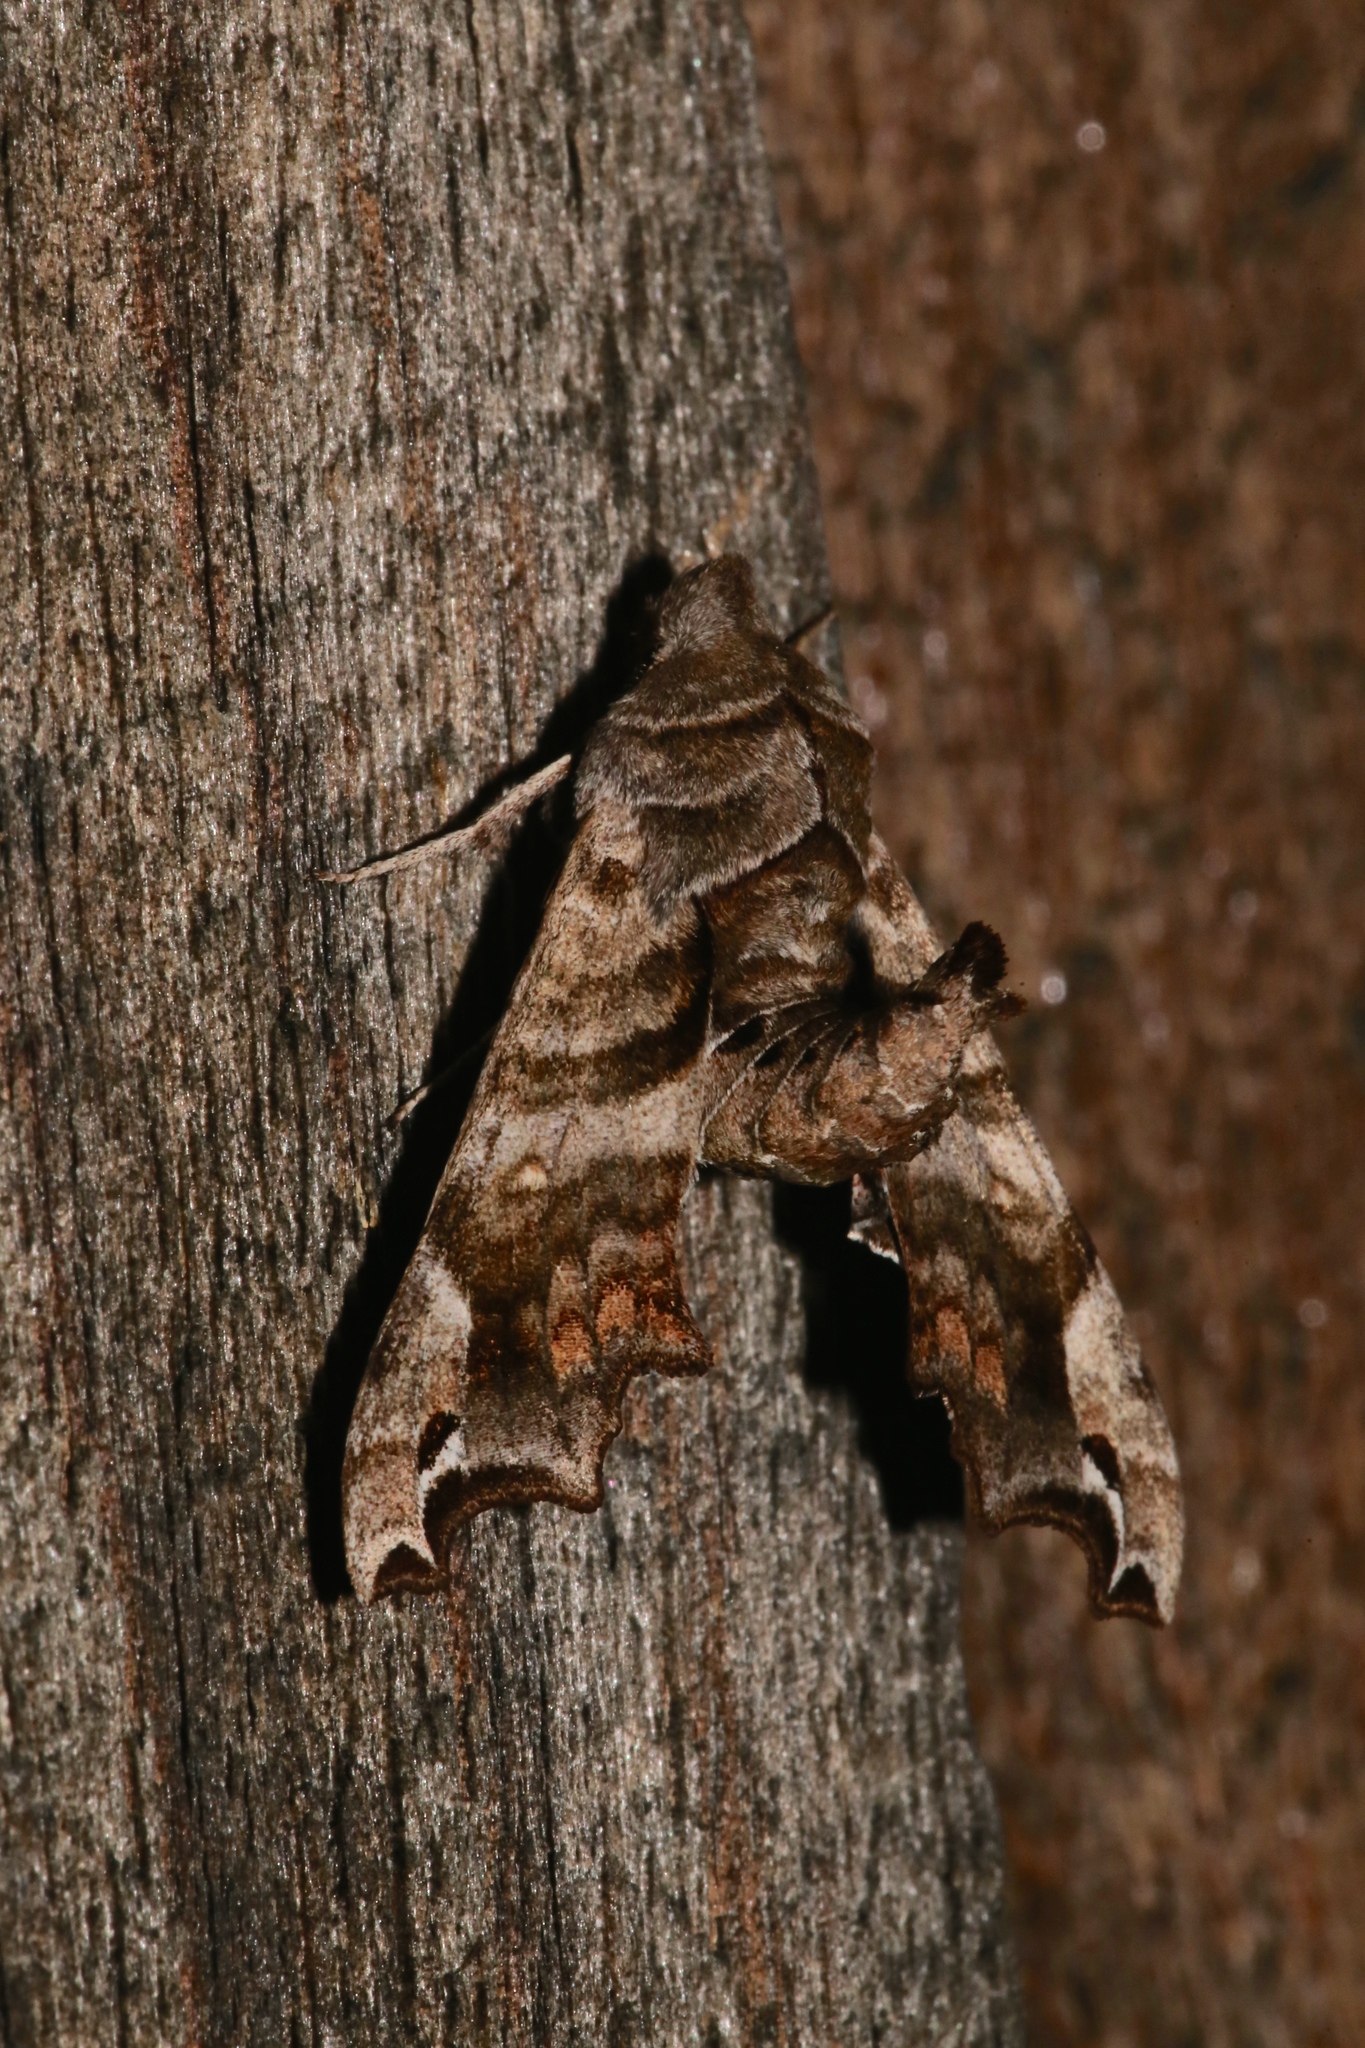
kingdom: Animalia
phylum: Arthropoda
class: Insecta
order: Lepidoptera
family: Sphingidae
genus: Deidamia
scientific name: Deidamia inscriptum
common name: Lettered sphinx
